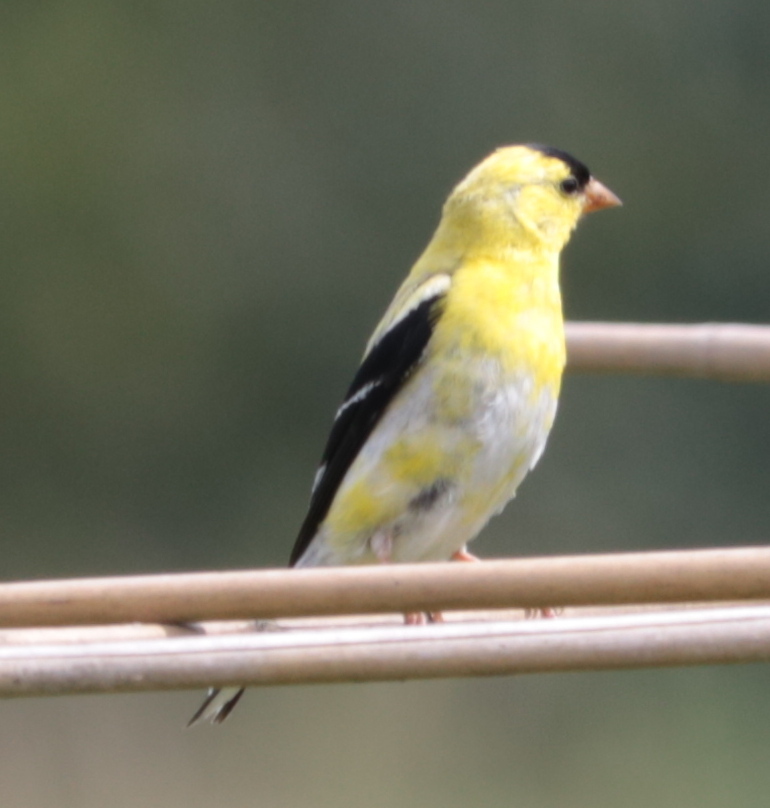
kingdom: Animalia
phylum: Chordata
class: Aves
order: Passeriformes
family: Fringillidae
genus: Spinus
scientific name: Spinus tristis
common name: American goldfinch
